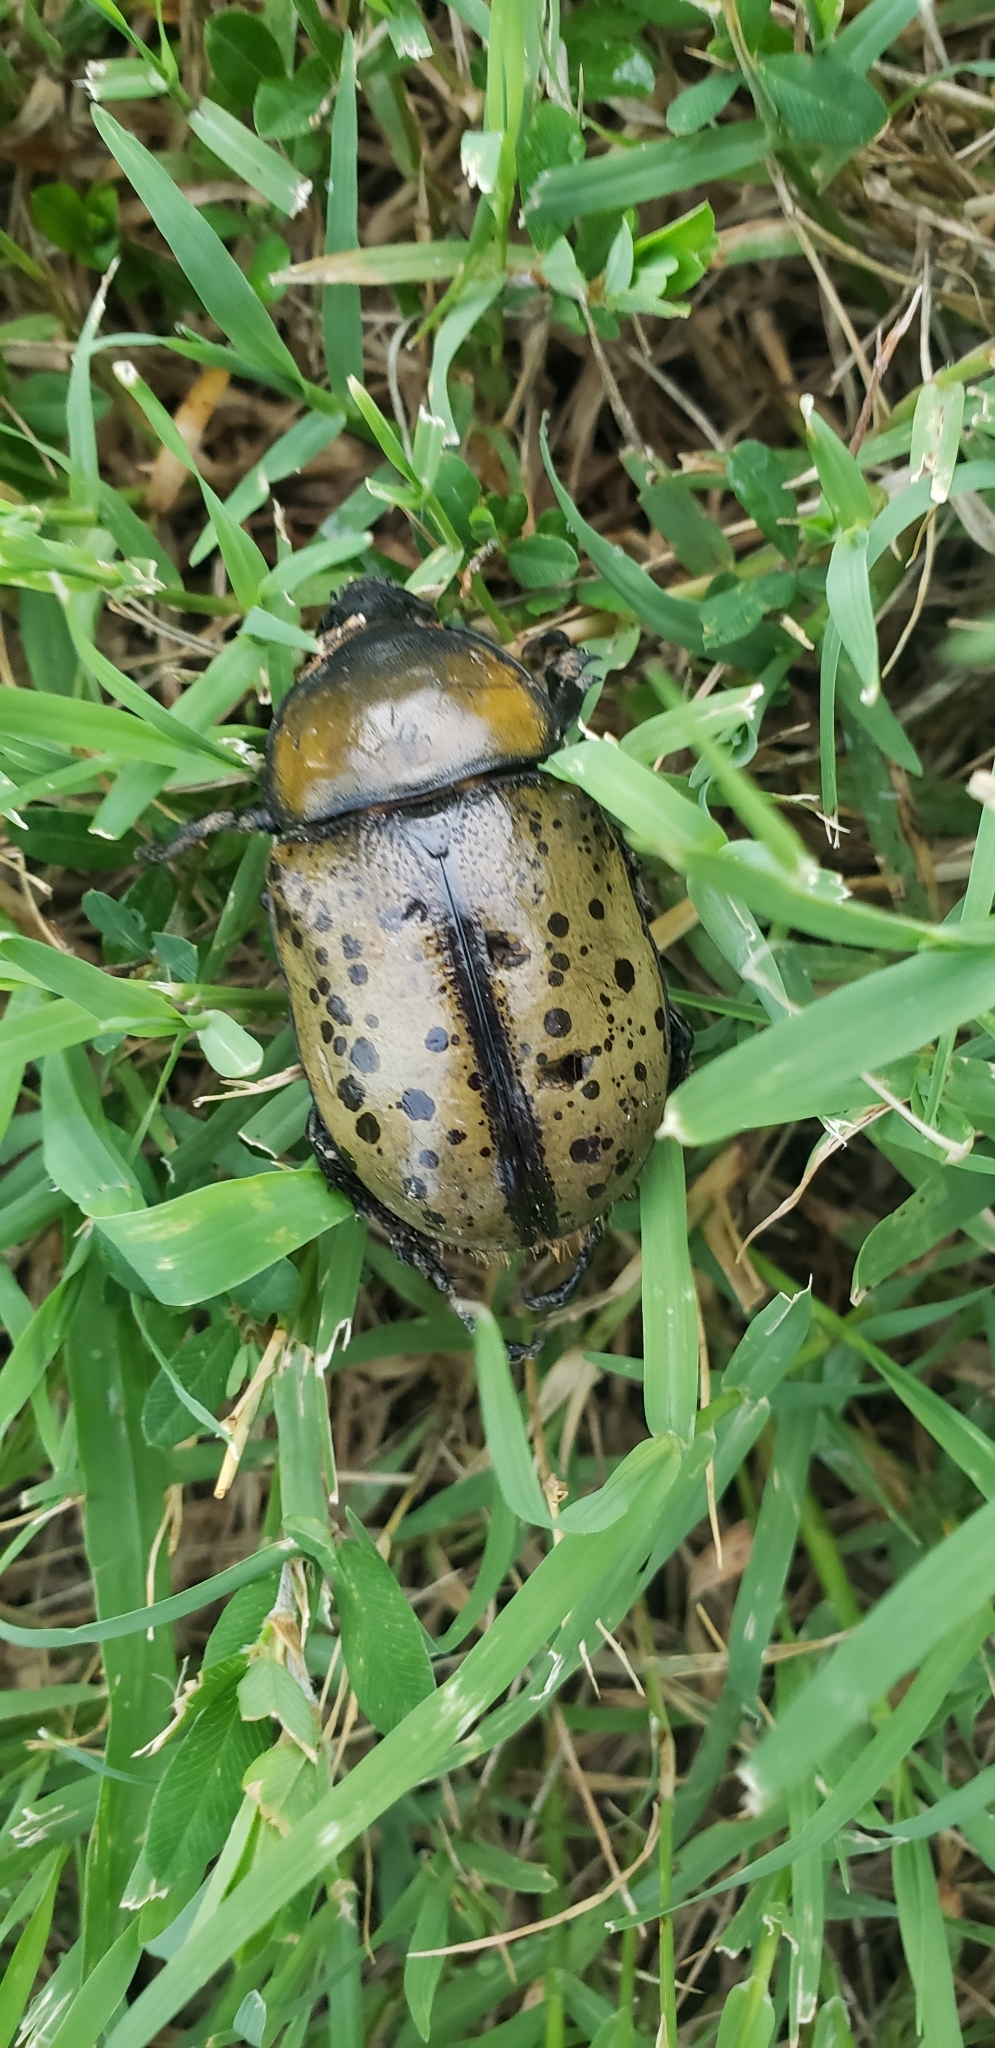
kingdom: Animalia
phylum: Arthropoda
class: Insecta
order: Coleoptera
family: Scarabaeidae
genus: Dynastes
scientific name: Dynastes tityus
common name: Eastern hercules beetle
